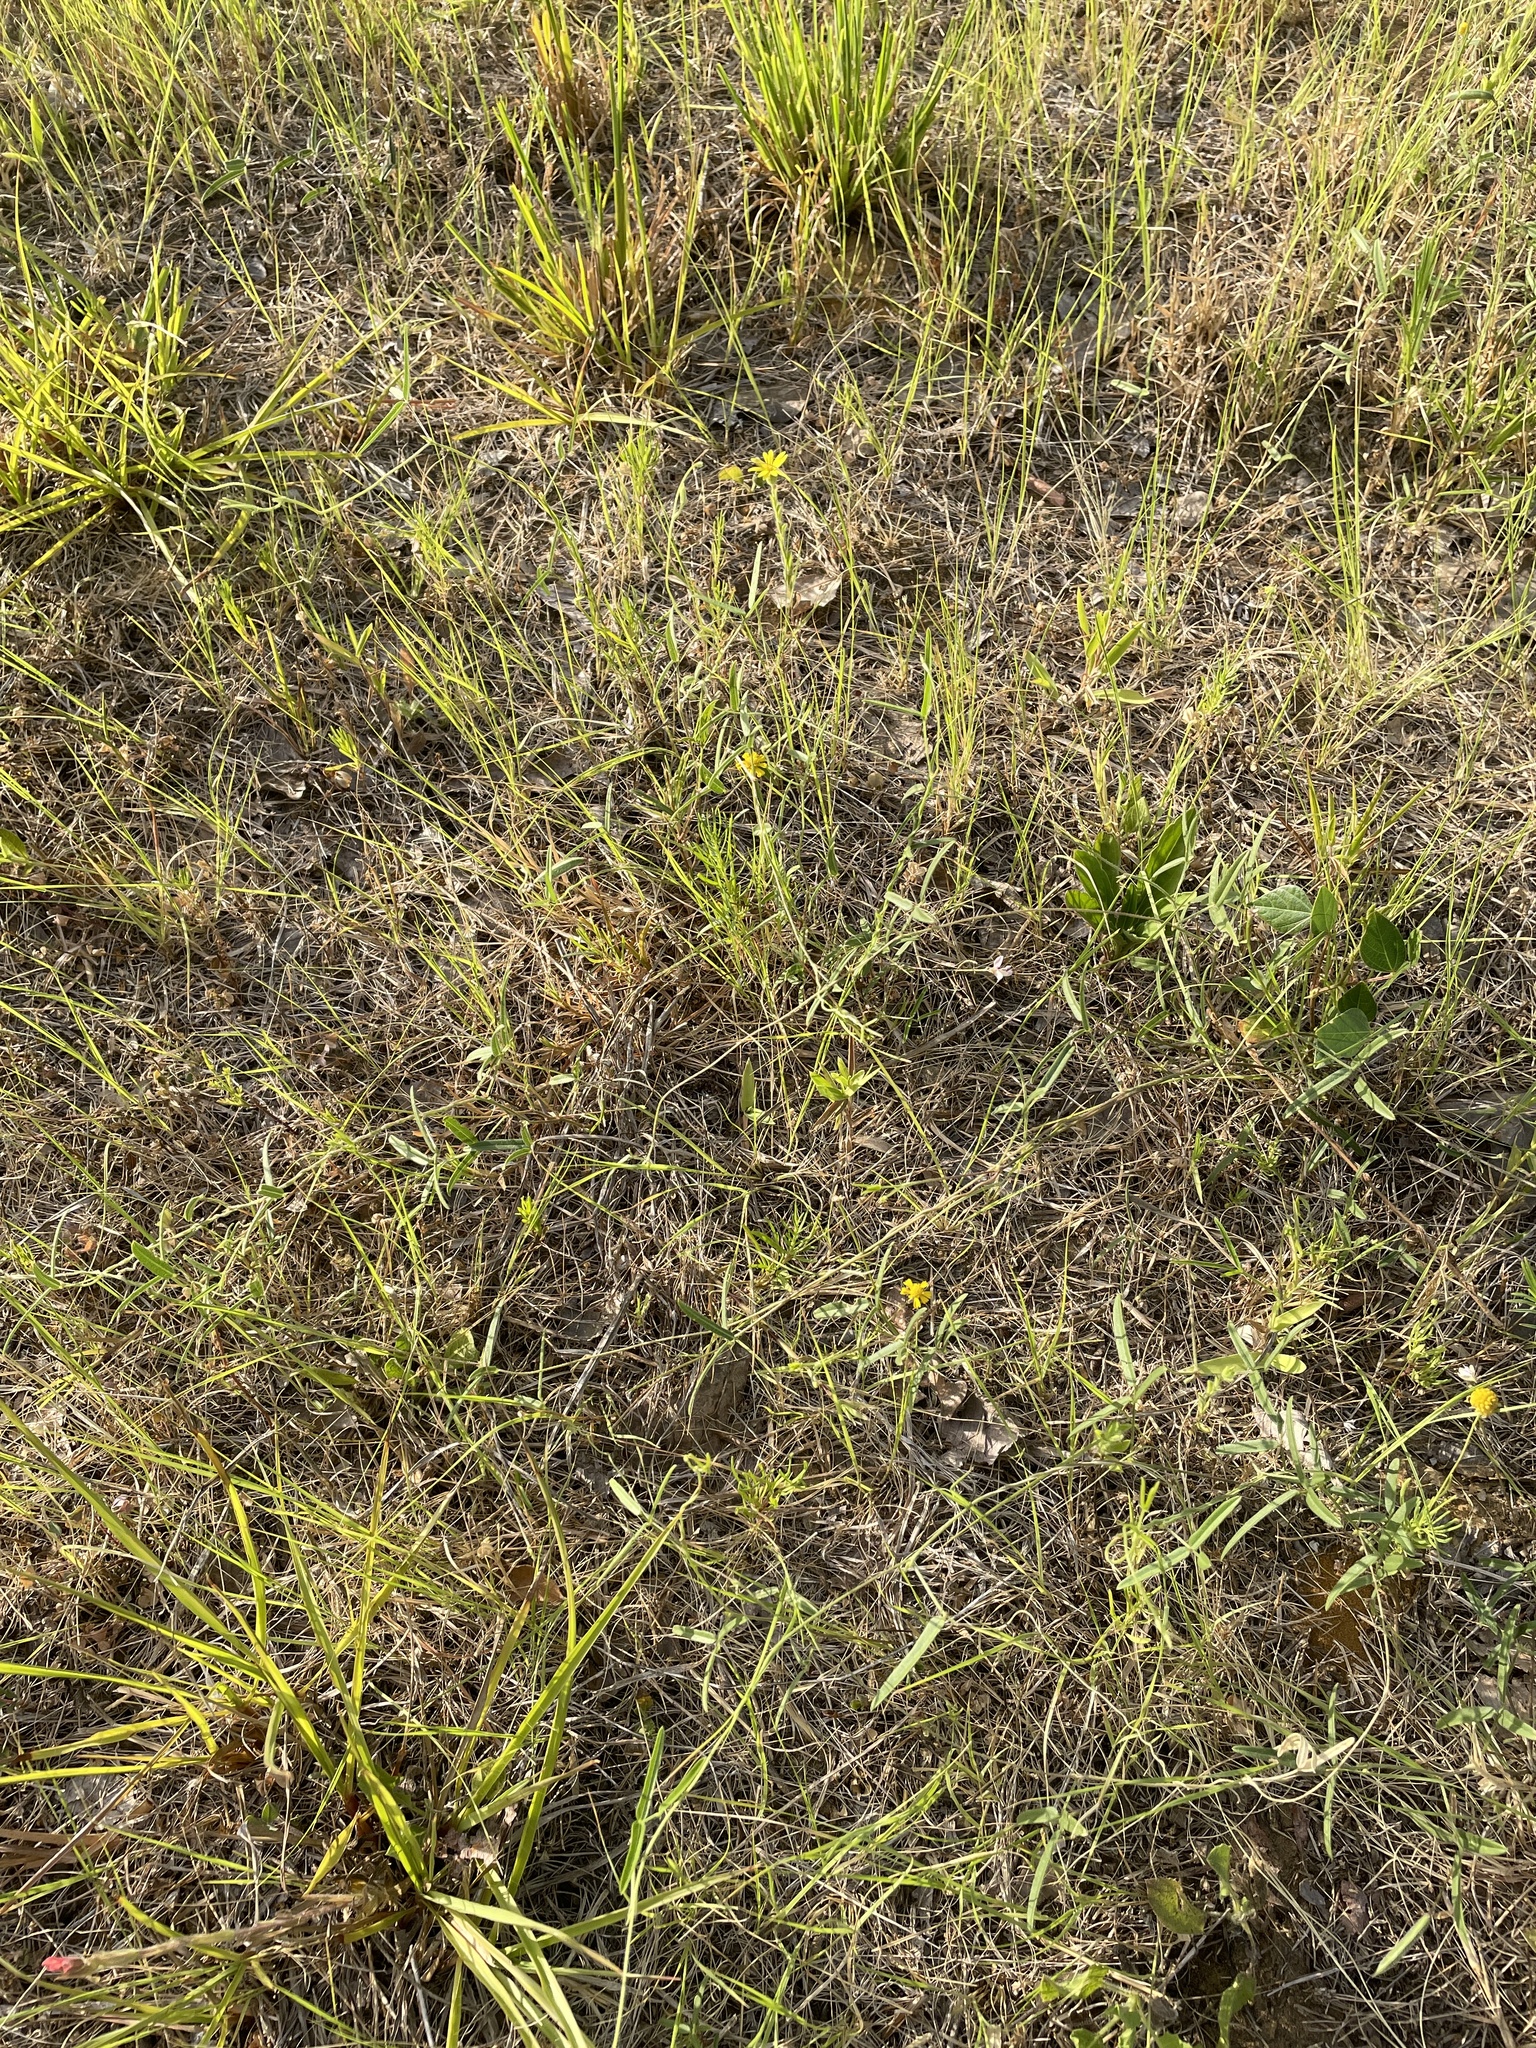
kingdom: Plantae
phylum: Tracheophyta
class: Magnoliopsida
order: Fabales
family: Fabaceae
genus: Strophostyles
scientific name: Strophostyles leiosperma
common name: Smooth-seed wild bean
